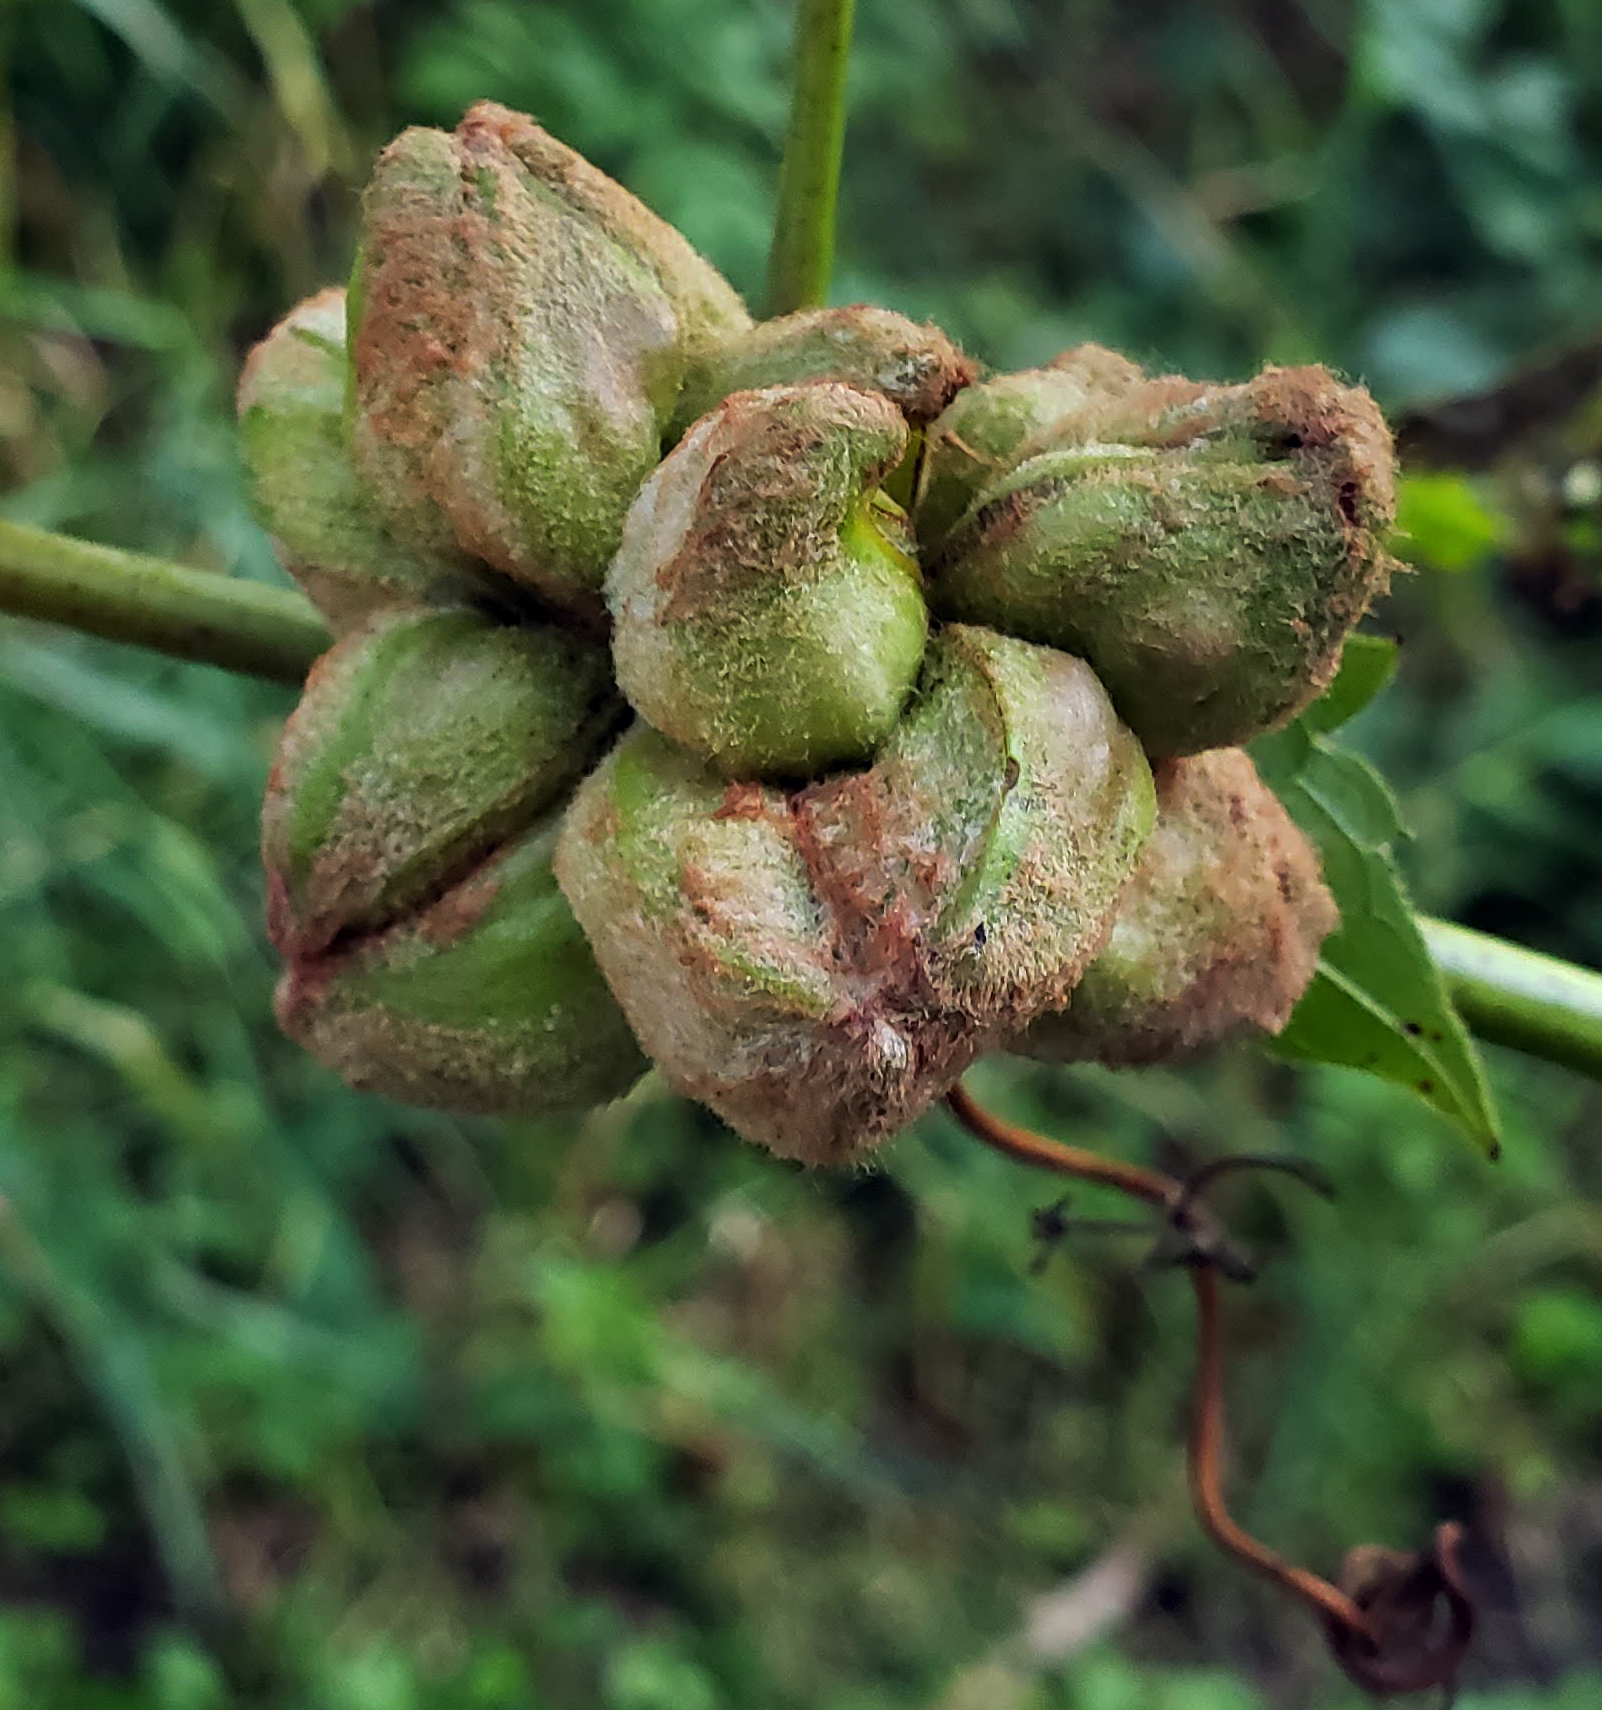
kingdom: Animalia
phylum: Arthropoda
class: Insecta
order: Diptera
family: Cecidomyiidae
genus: Ampelomyia
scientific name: Ampelomyia vitiscoryloides
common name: Grape filbert gall
